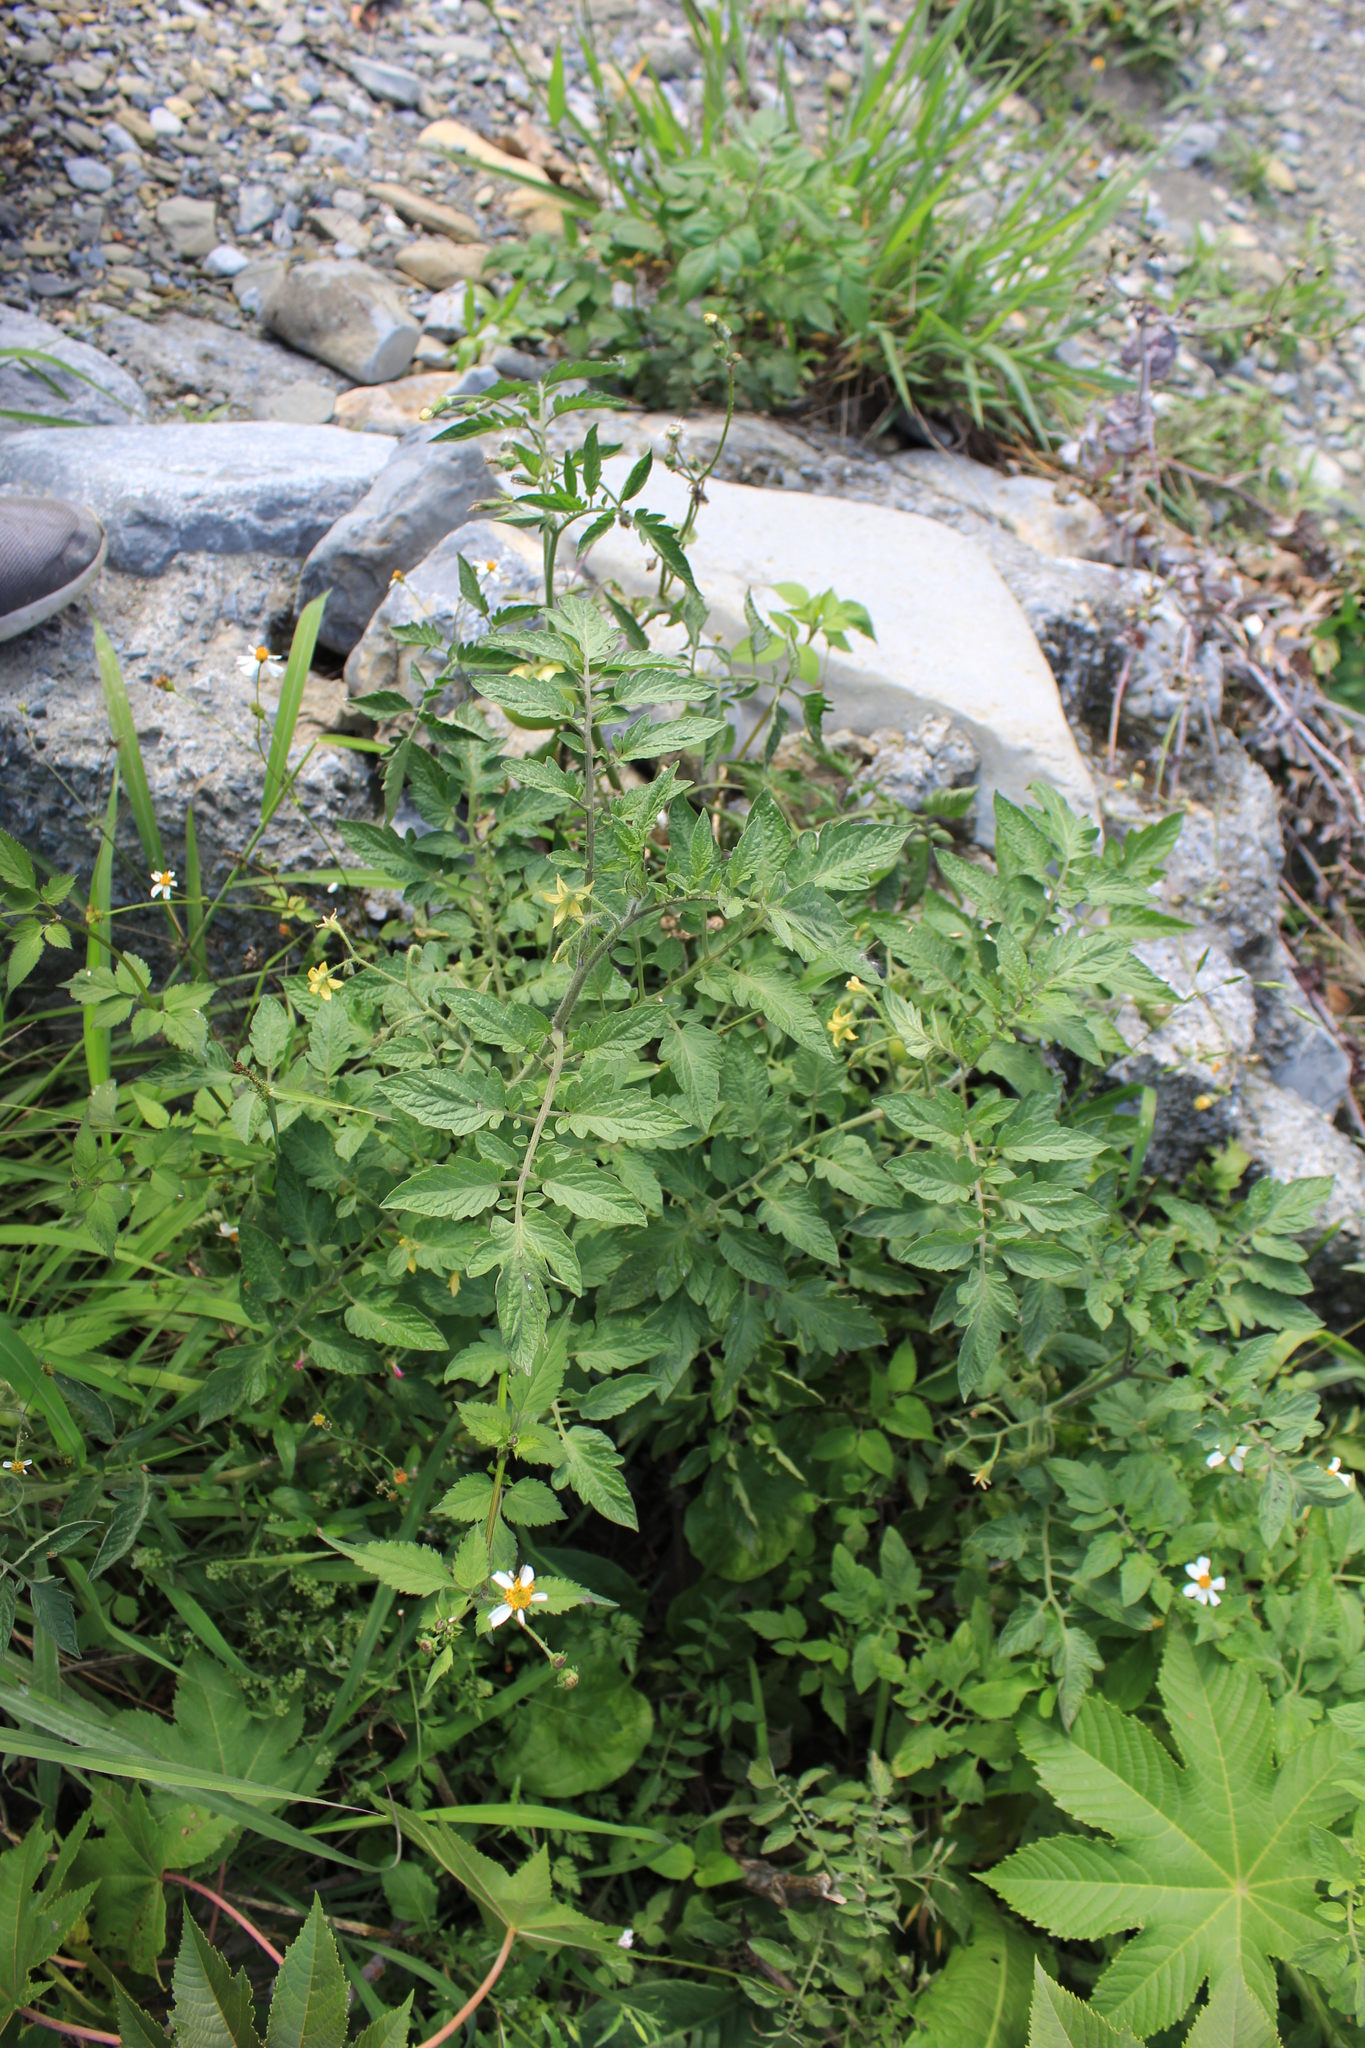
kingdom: Plantae
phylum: Tracheophyta
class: Magnoliopsida
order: Solanales
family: Solanaceae
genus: Solanum
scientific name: Solanum lycopersicum
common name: Garden tomato
